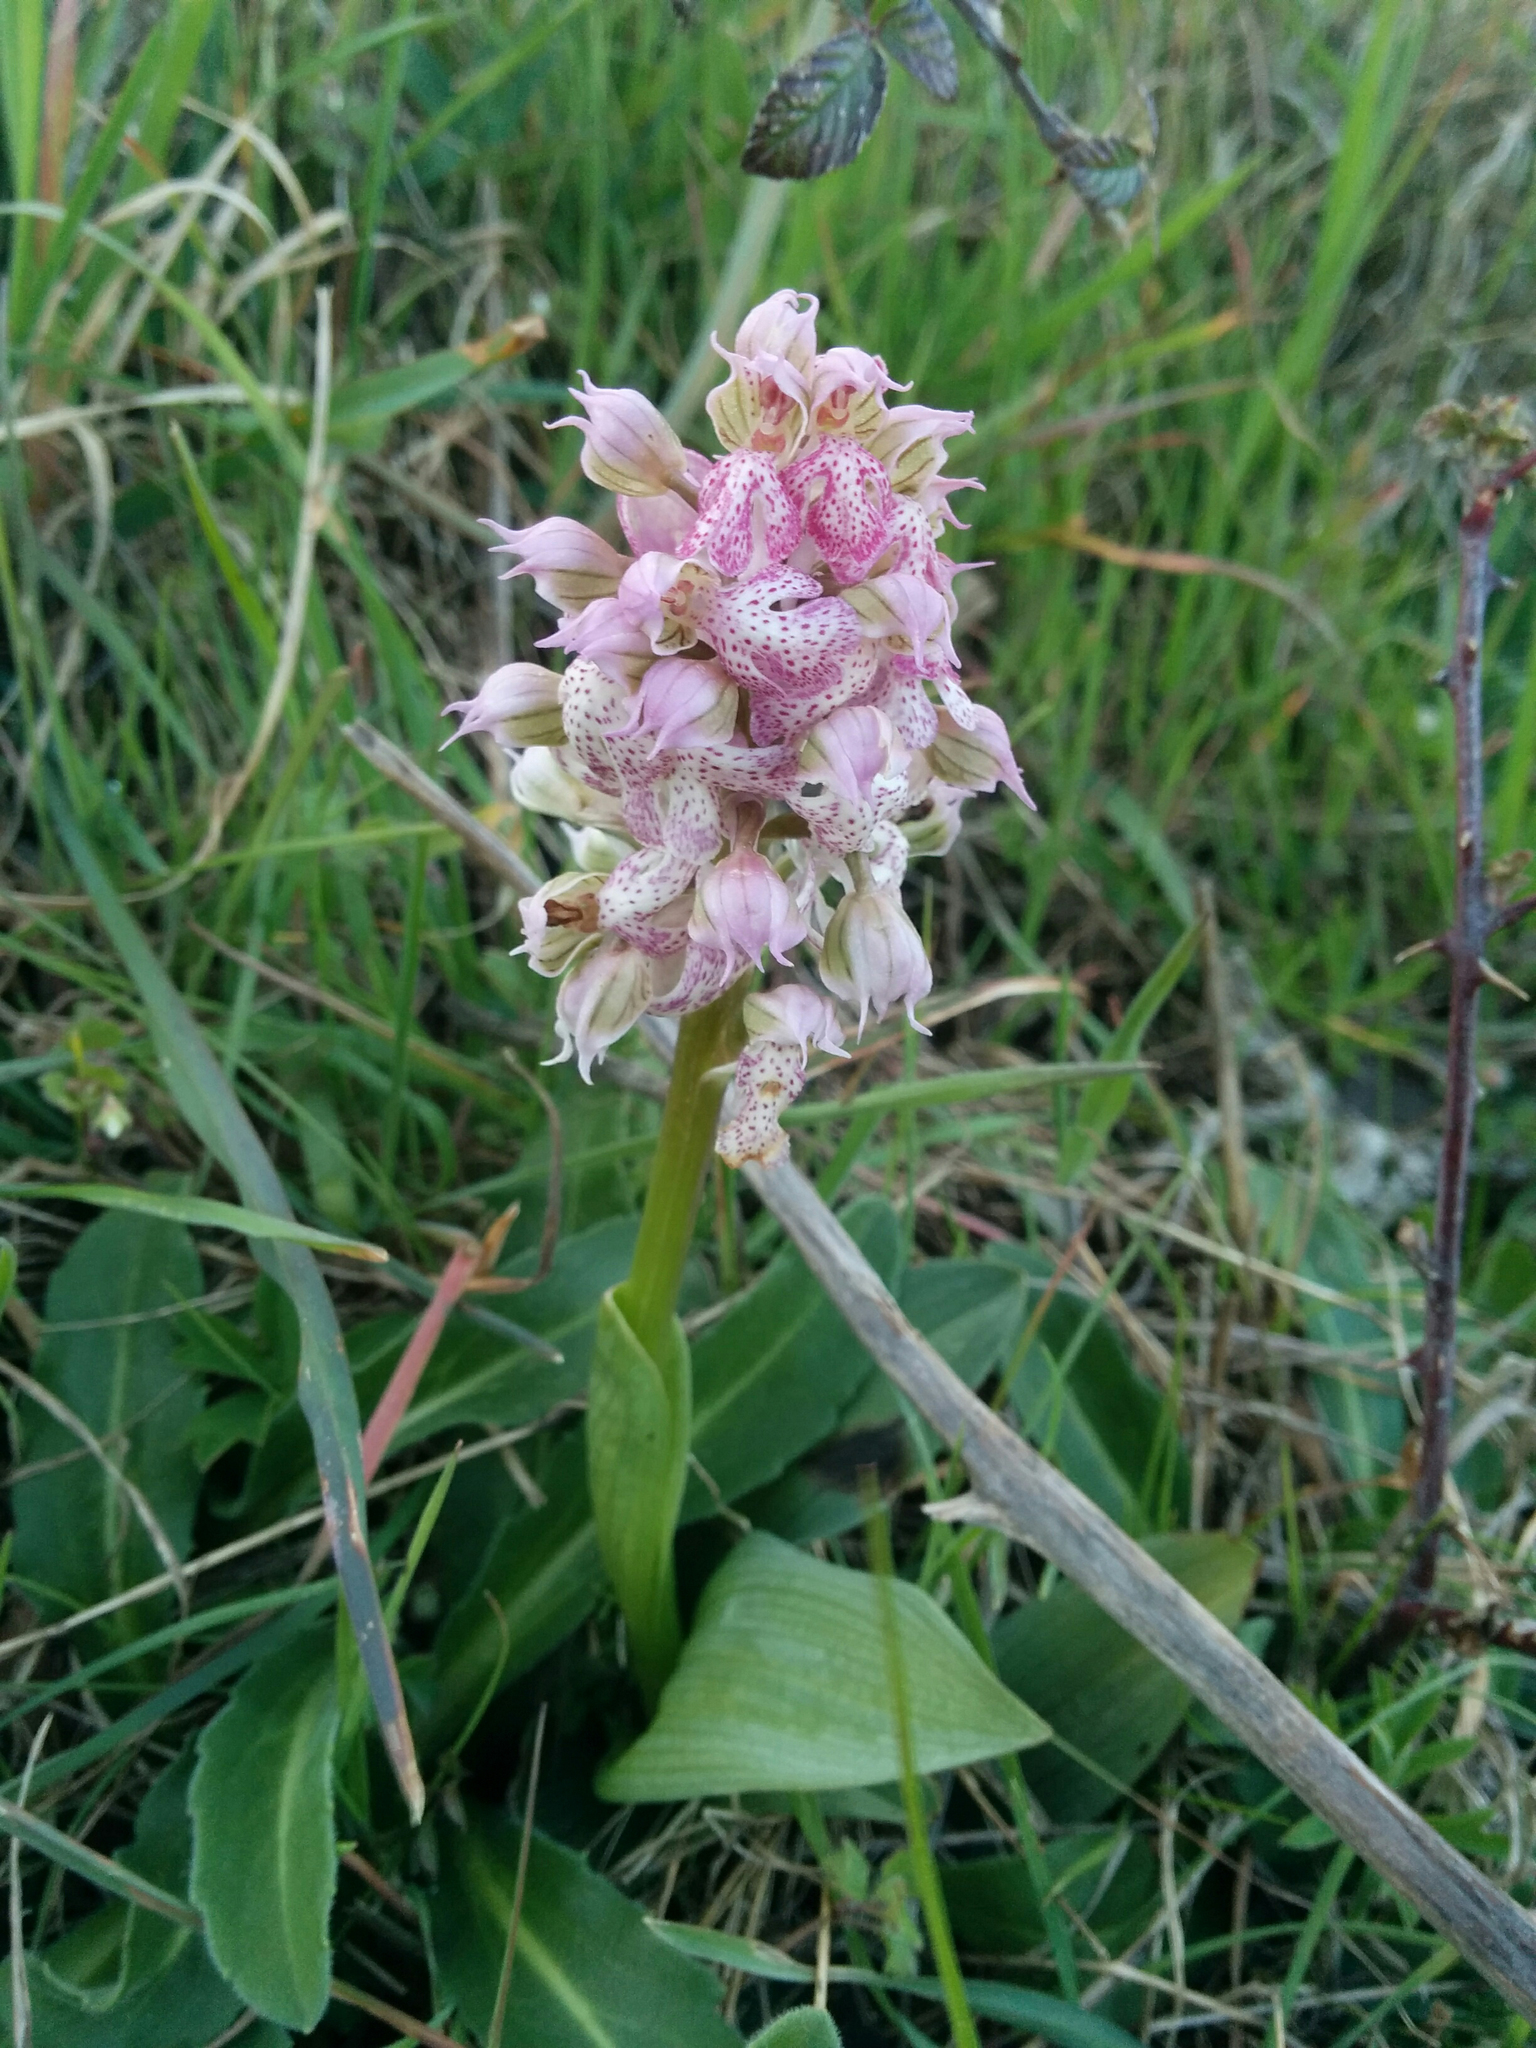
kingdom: Plantae
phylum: Tracheophyta
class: Liliopsida
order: Asparagales
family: Orchidaceae
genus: Neotinea
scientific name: Neotinea lactea
